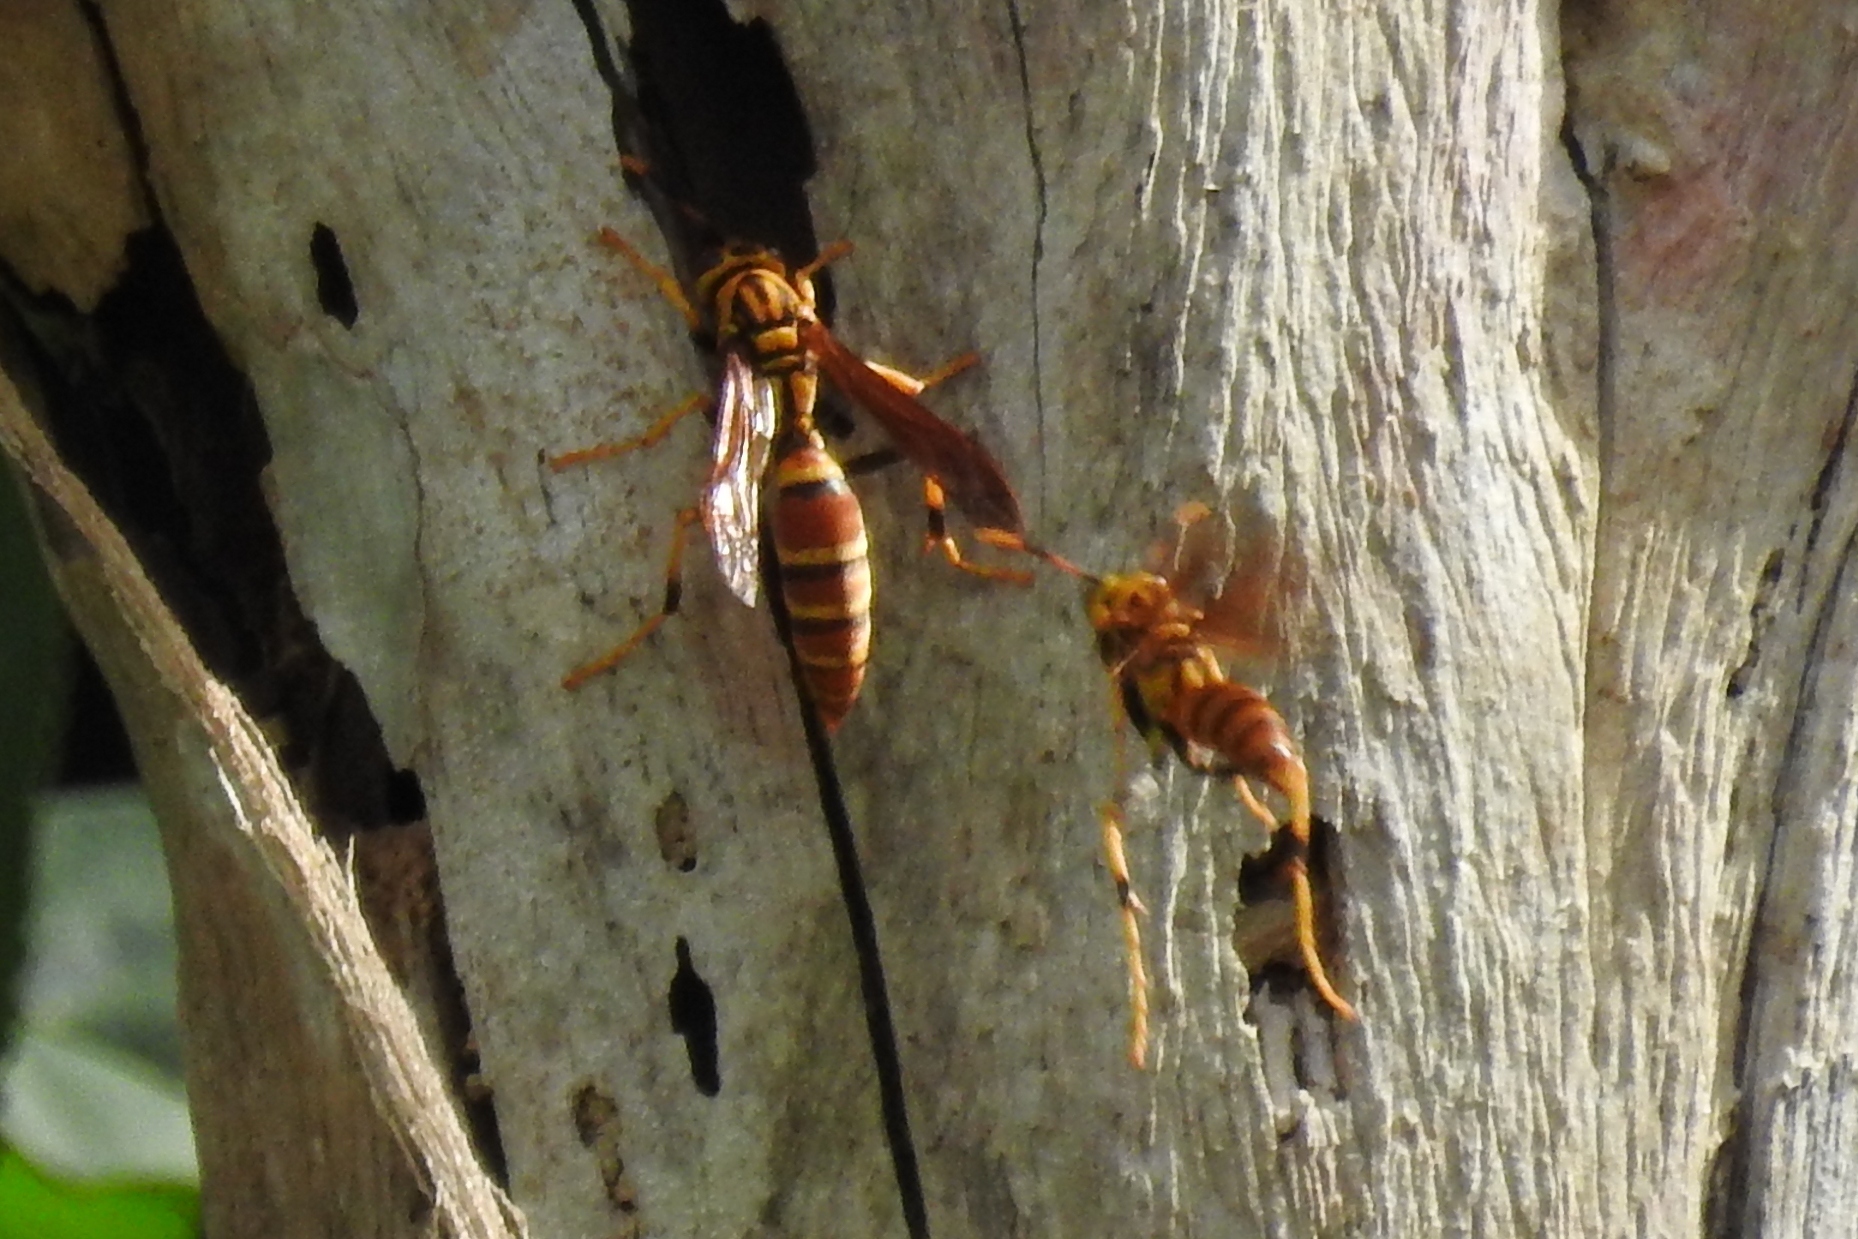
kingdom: Animalia
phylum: Arthropoda
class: Insecta
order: Hymenoptera
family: Eumenidae
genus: Polistes
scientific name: Polistes cubensis
